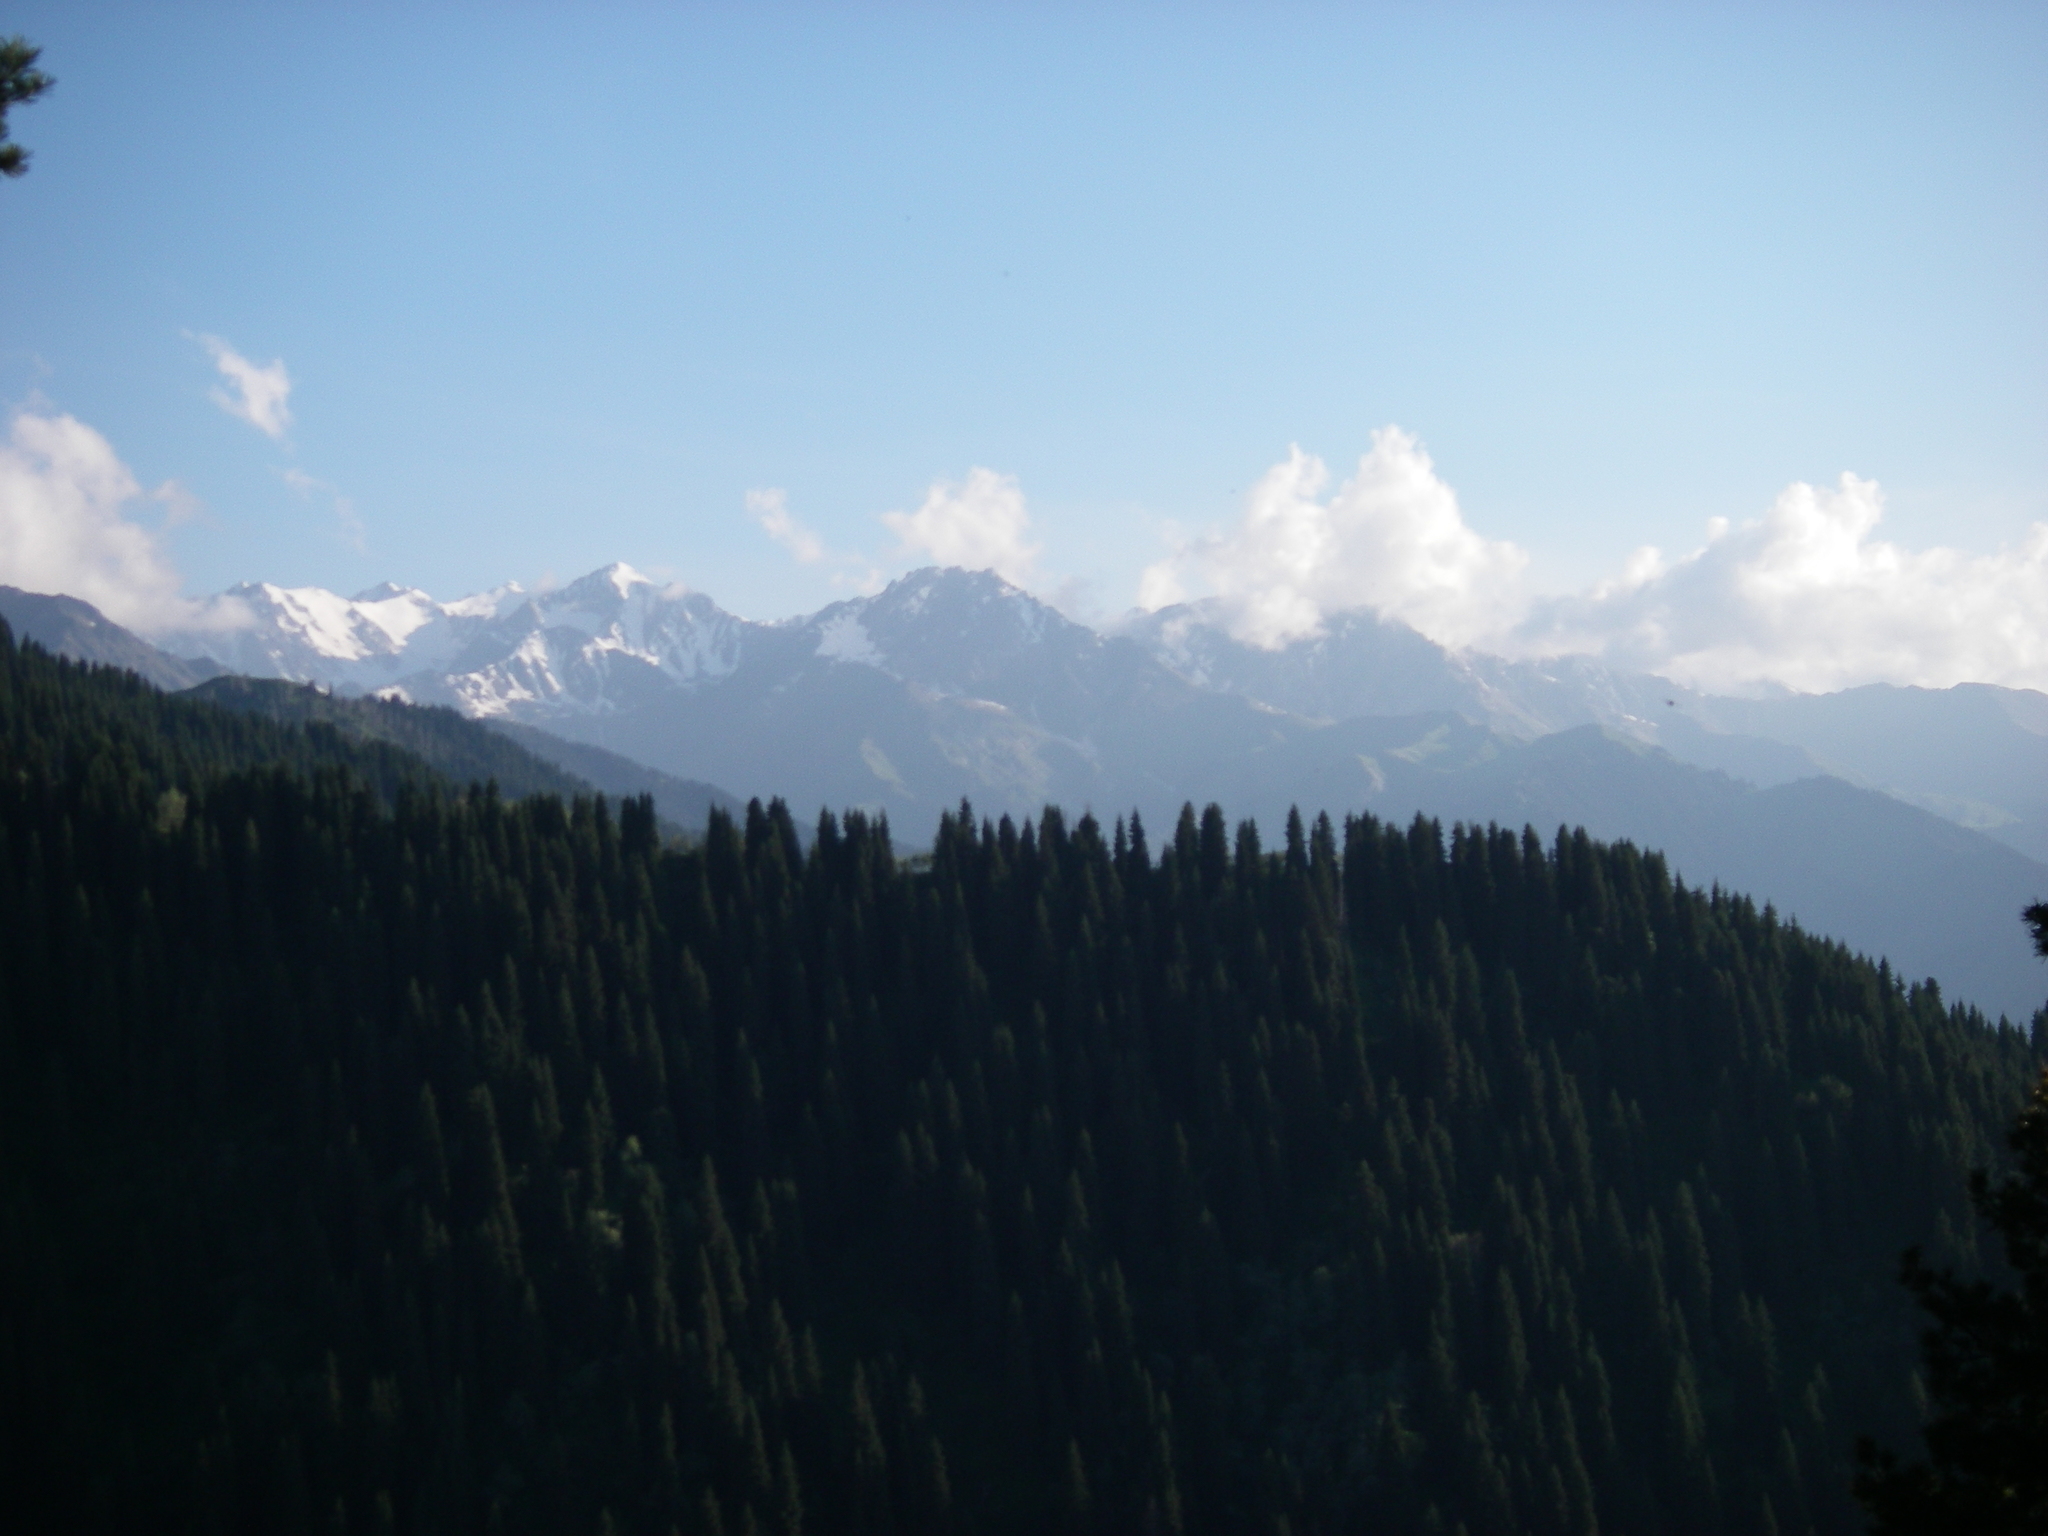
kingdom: Plantae
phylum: Tracheophyta
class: Pinopsida
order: Pinales
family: Pinaceae
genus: Picea
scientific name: Picea schrenkiana
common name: Asian spruce
